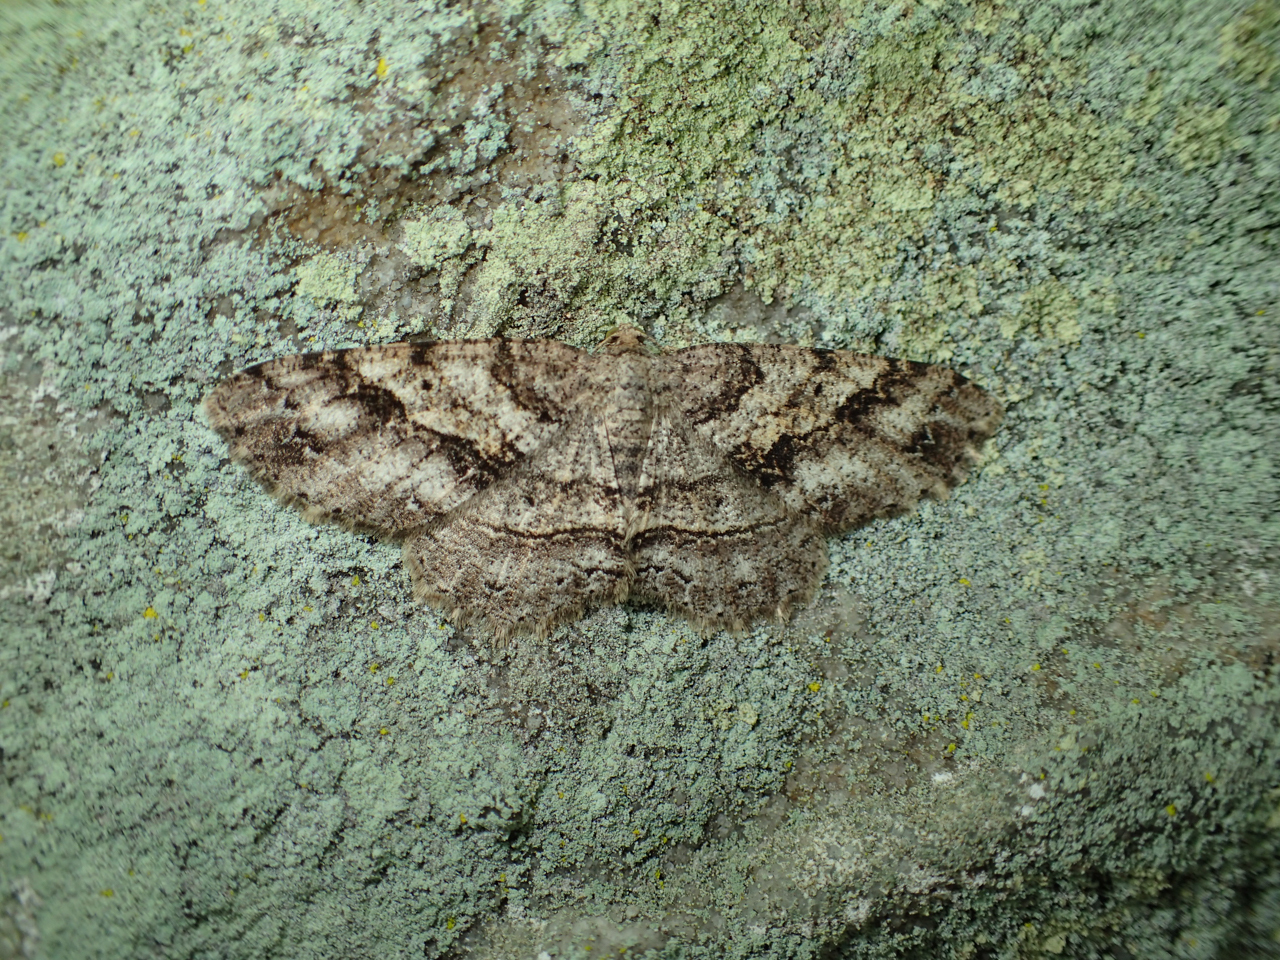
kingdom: Animalia
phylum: Arthropoda
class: Insecta
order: Lepidoptera
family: Geometridae
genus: Melanolophia
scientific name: Melanolophia canadaria
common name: Canadian melanolophia
